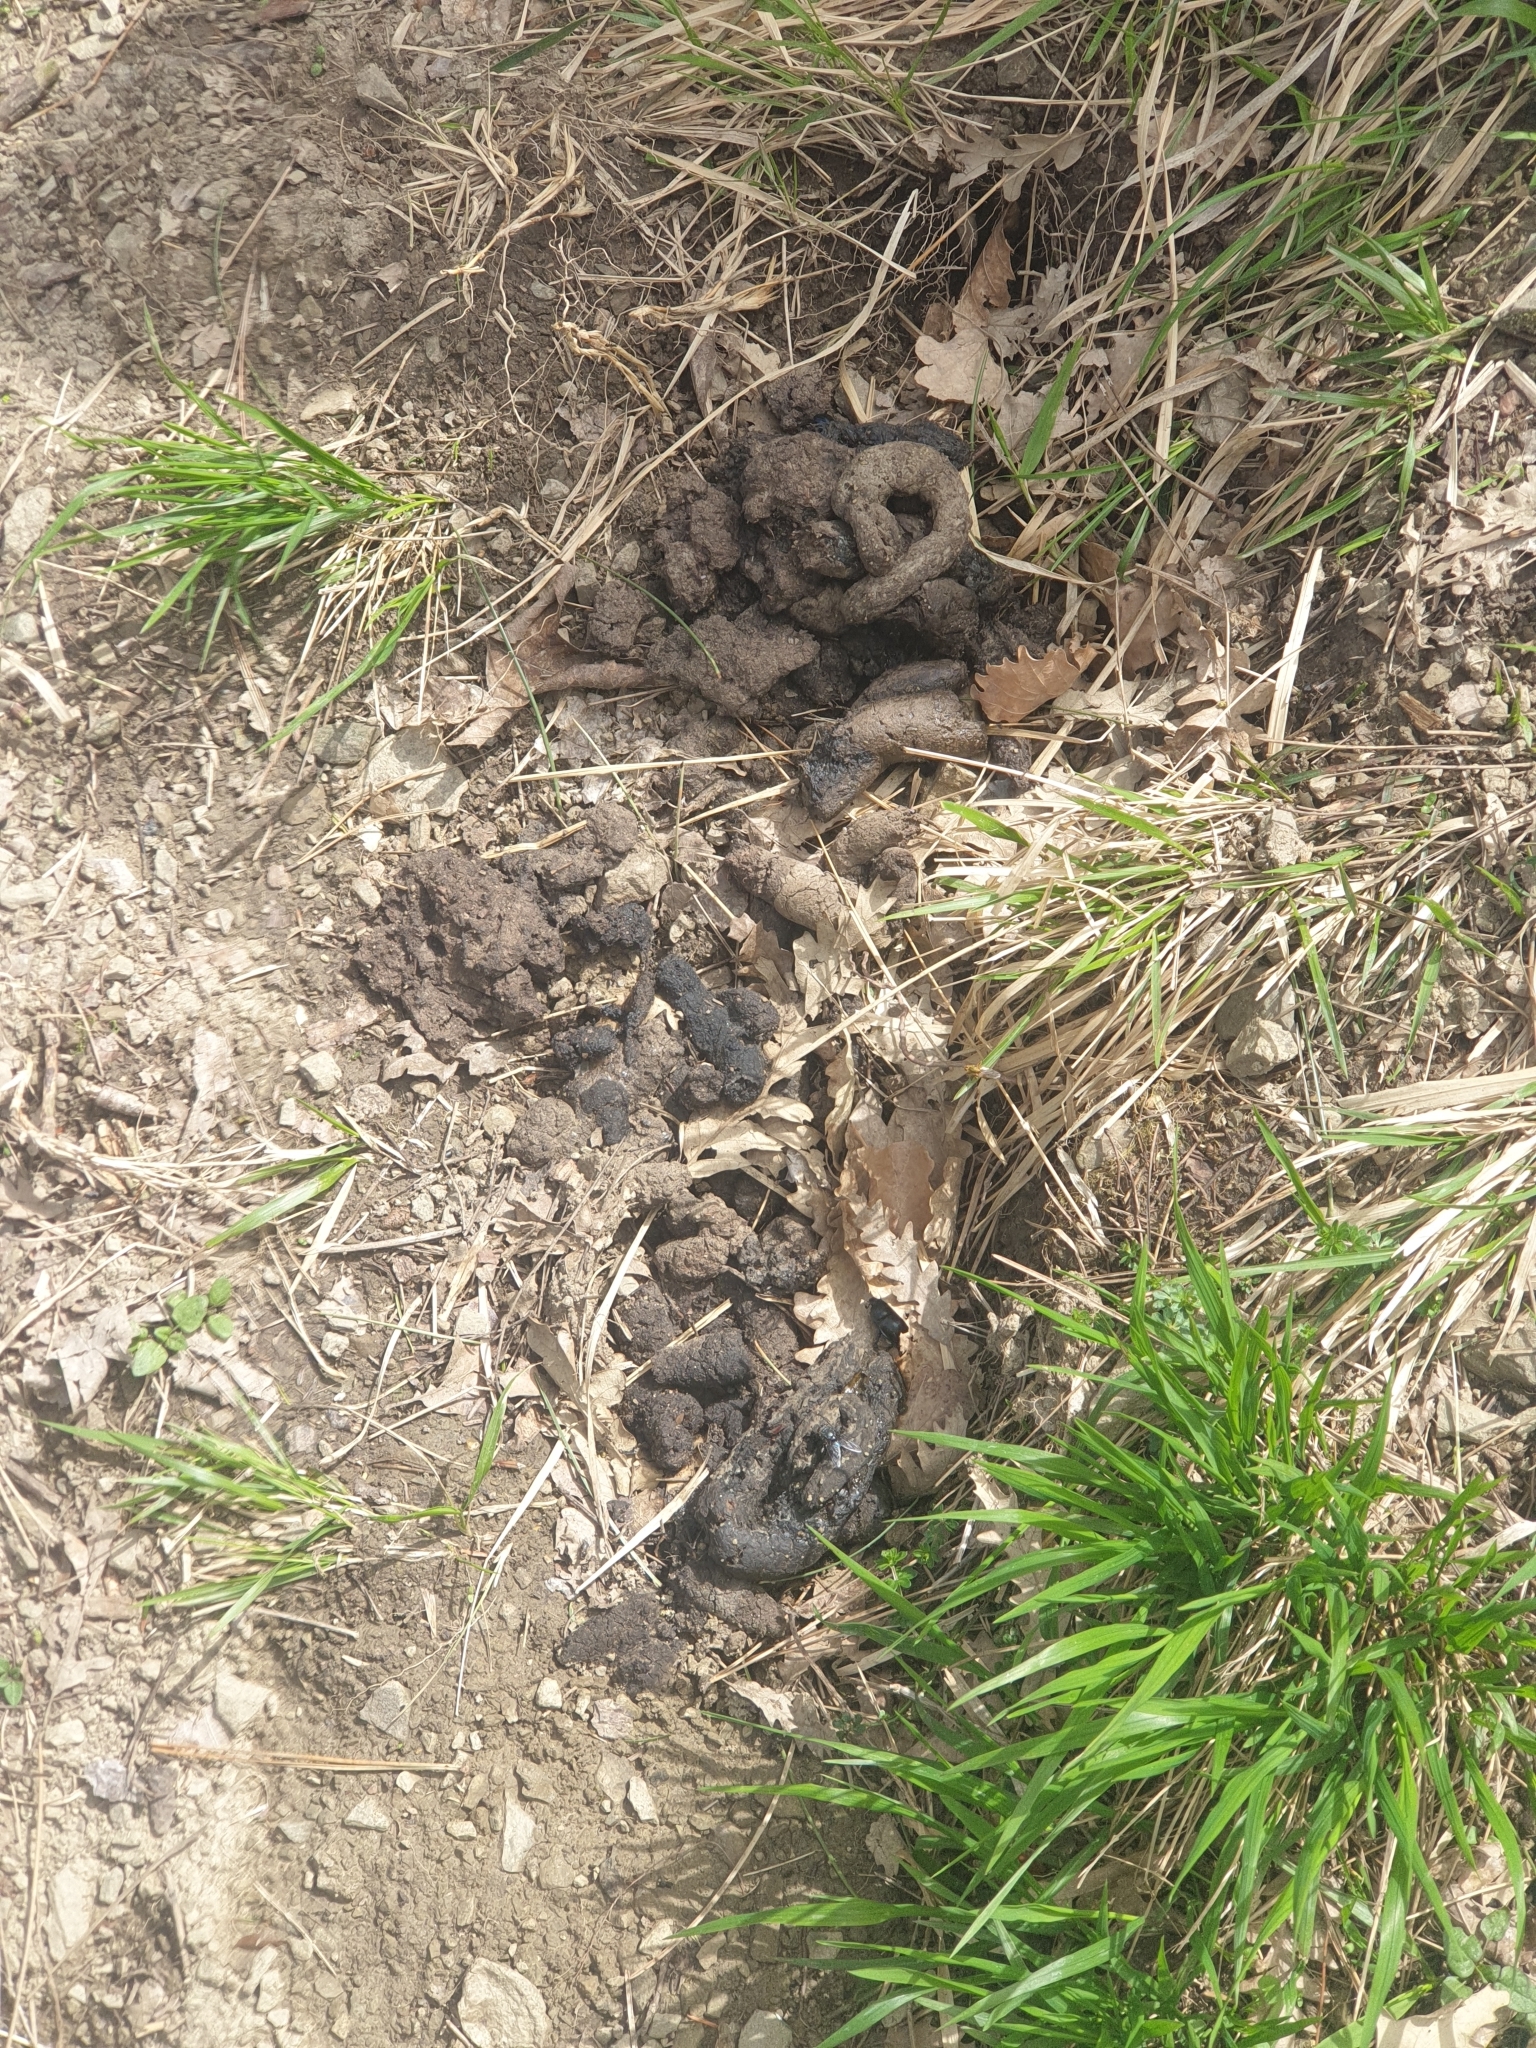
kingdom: Animalia
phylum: Chordata
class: Mammalia
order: Carnivora
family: Mustelidae
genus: Meles
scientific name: Meles meles
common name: Eurasian badger
